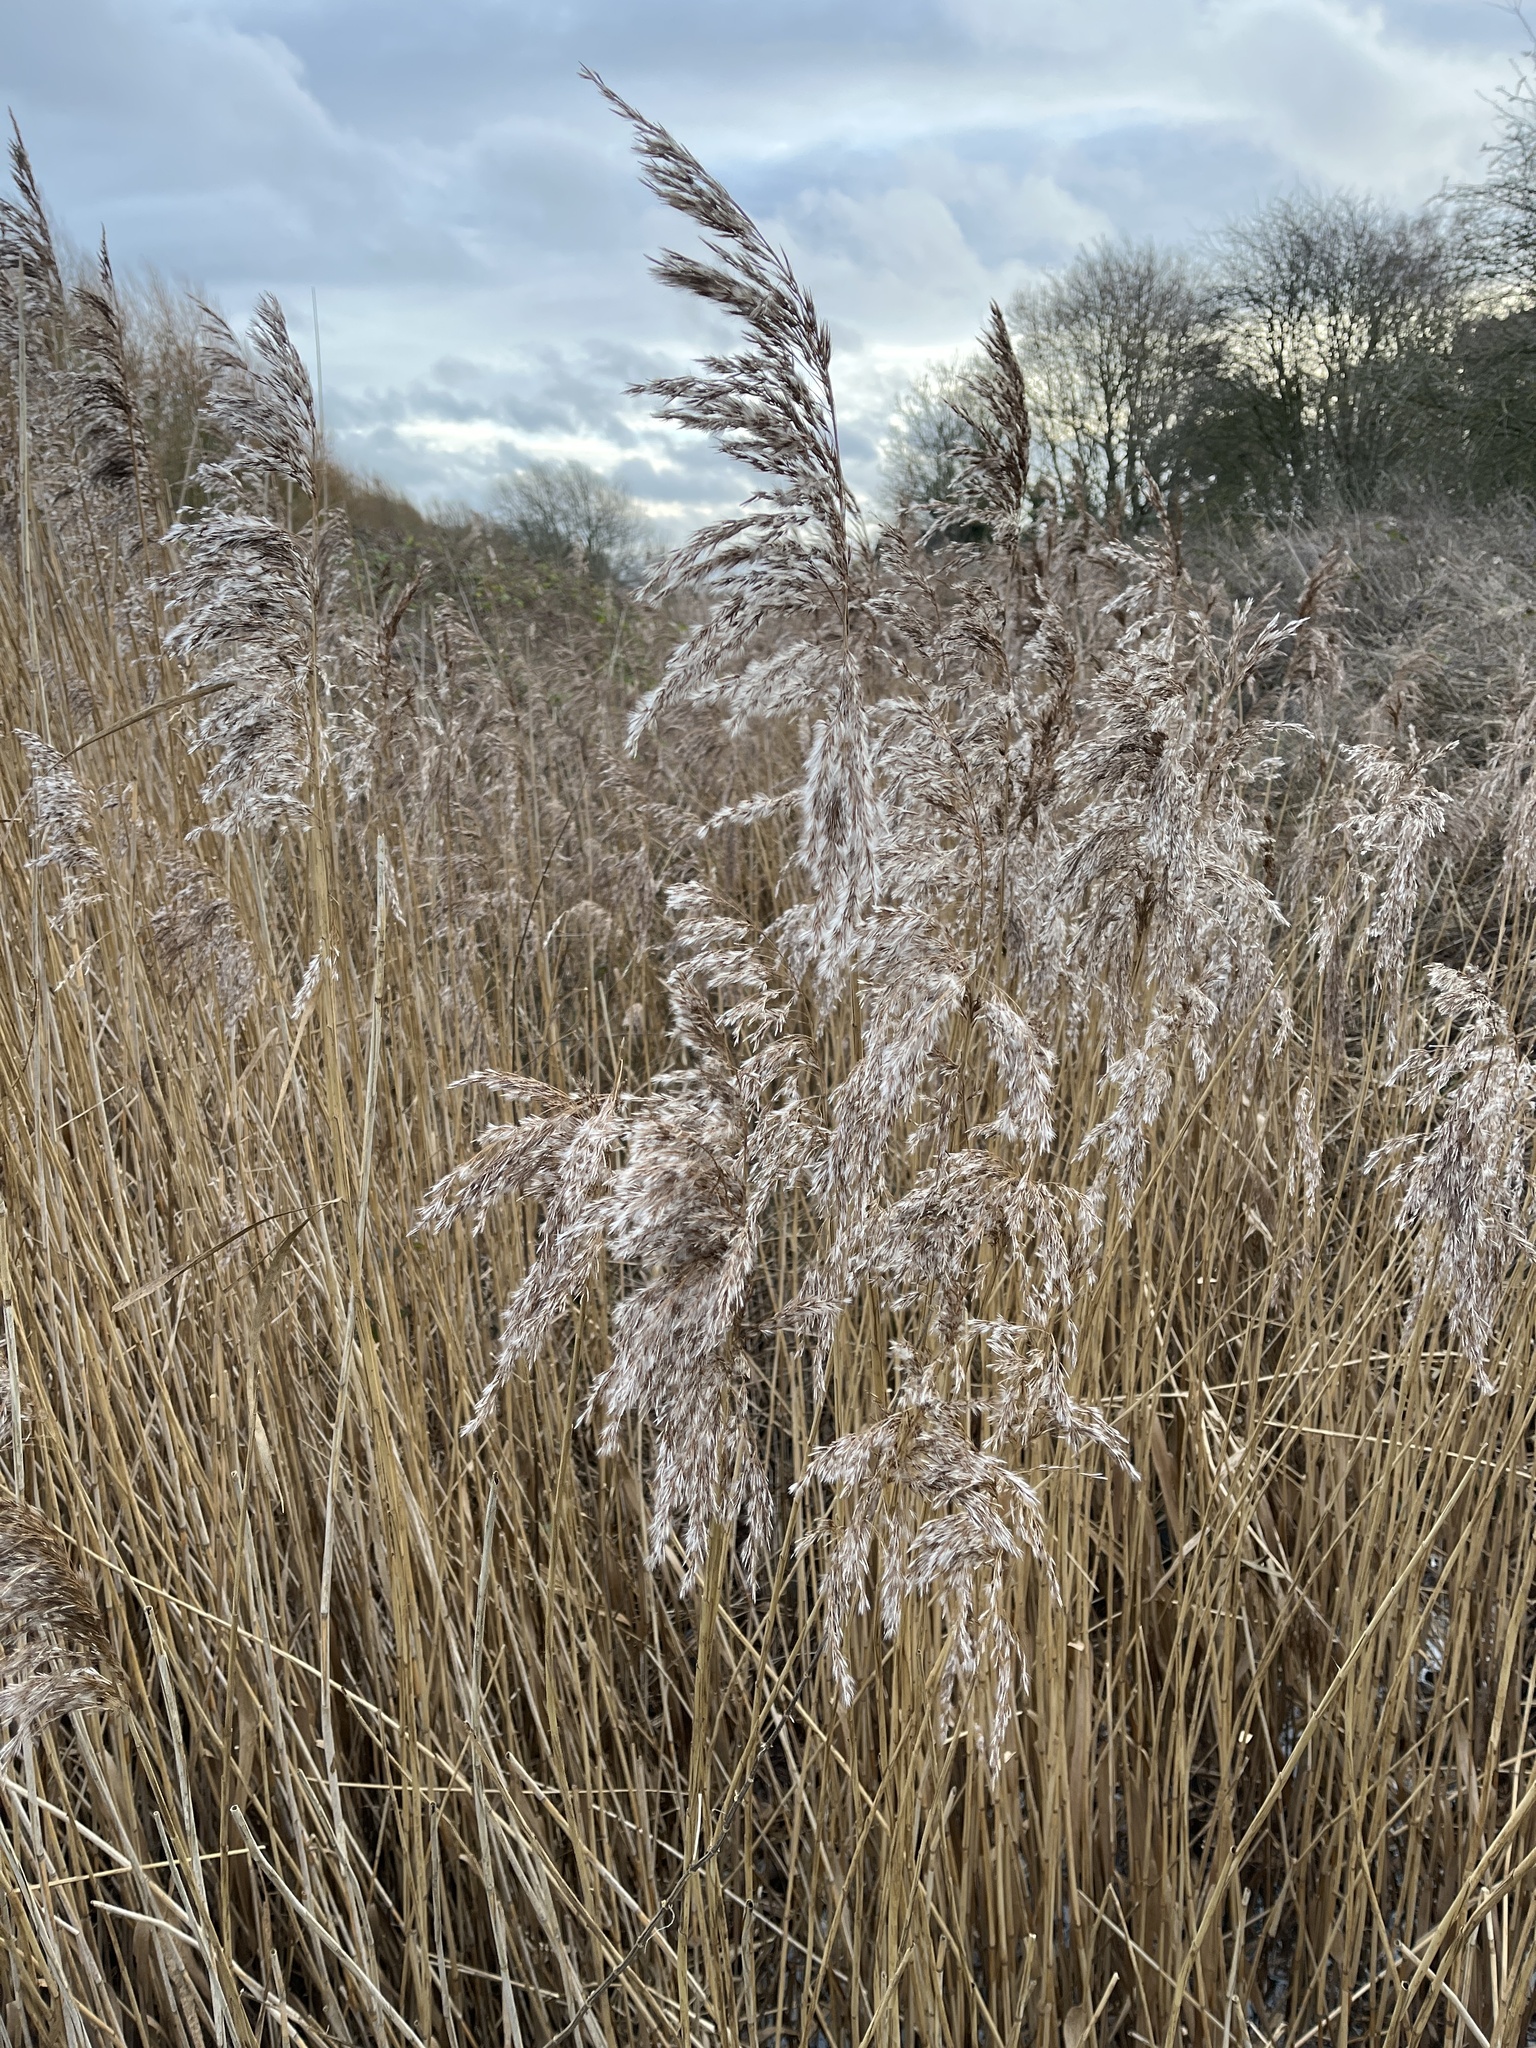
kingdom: Plantae
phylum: Tracheophyta
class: Liliopsida
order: Poales
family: Poaceae
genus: Phragmites
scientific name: Phragmites australis
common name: Common reed
